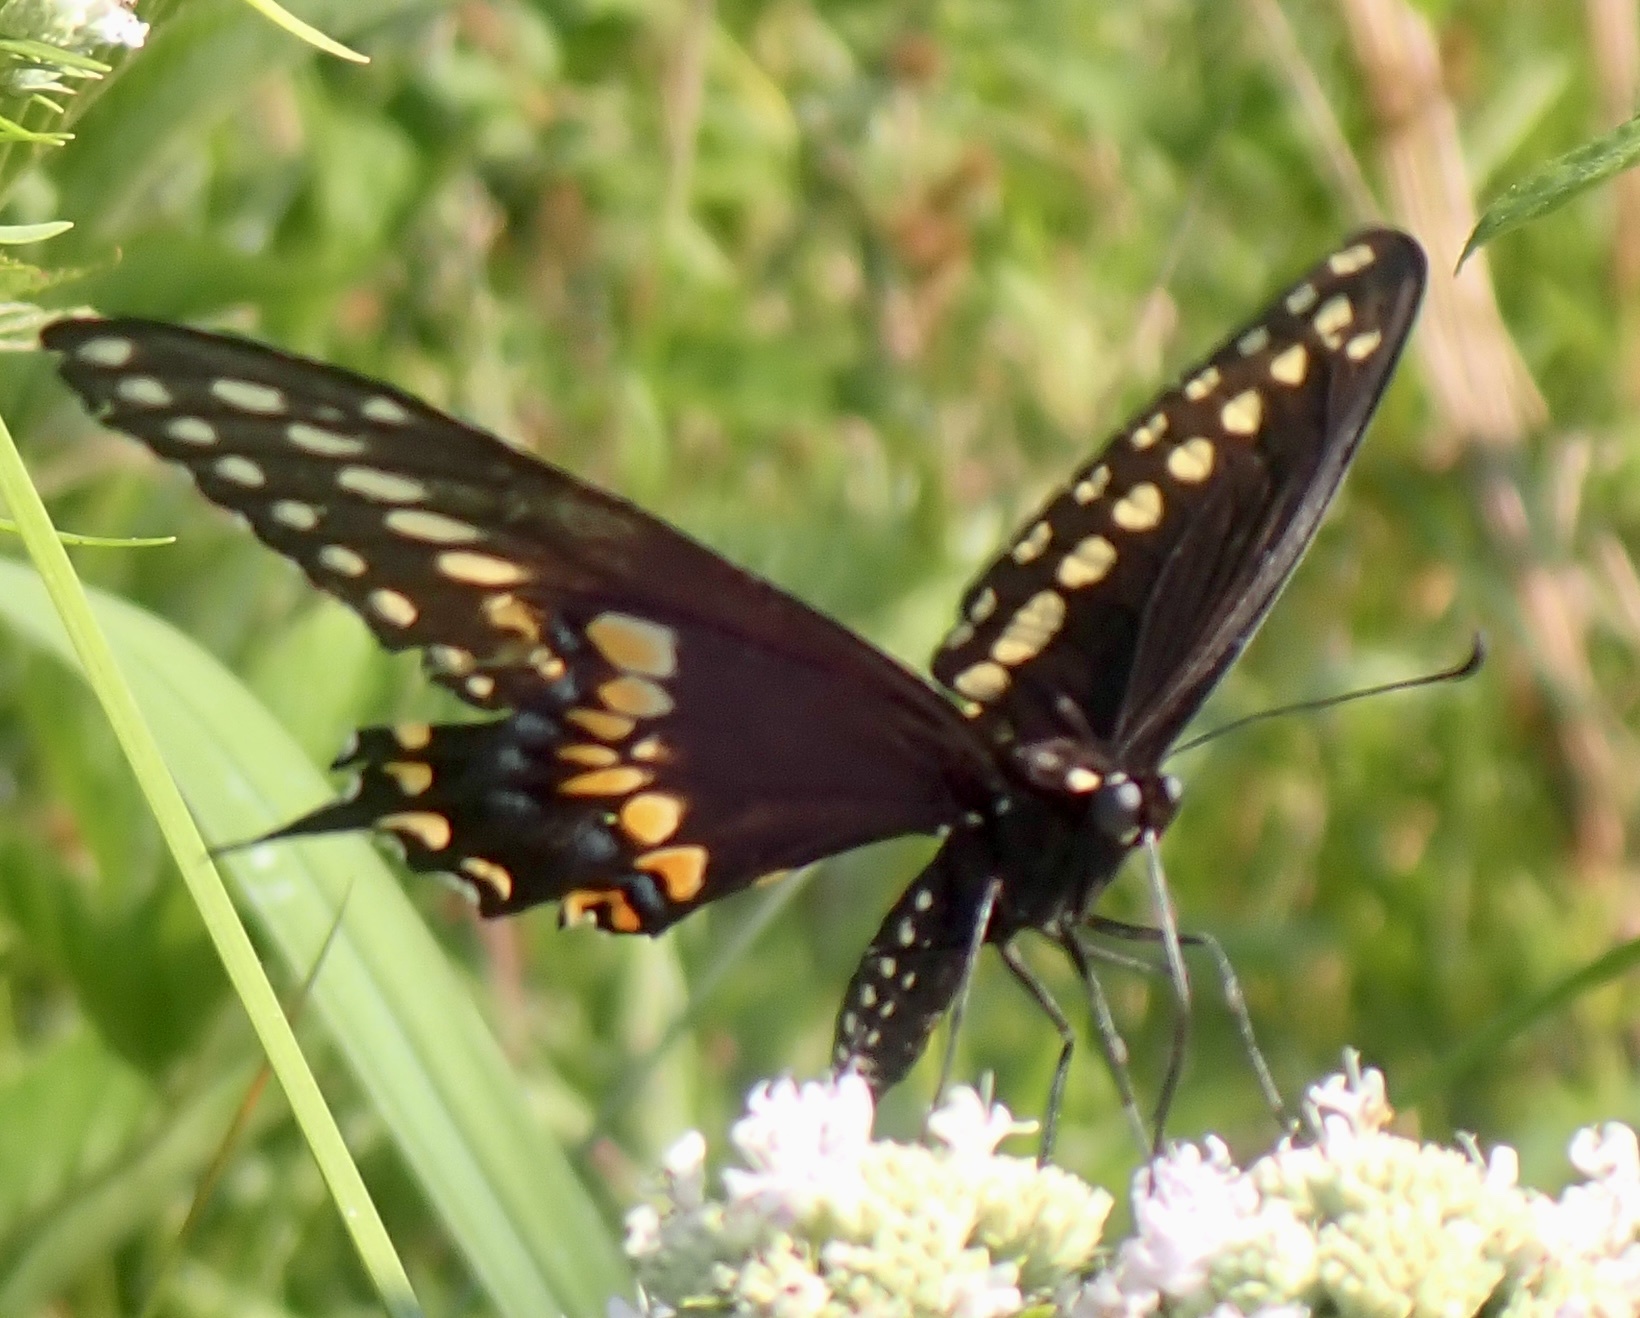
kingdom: Animalia
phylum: Arthropoda
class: Insecta
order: Lepidoptera
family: Papilionidae
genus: Papilio
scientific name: Papilio polyxenes
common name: Black swallowtail
